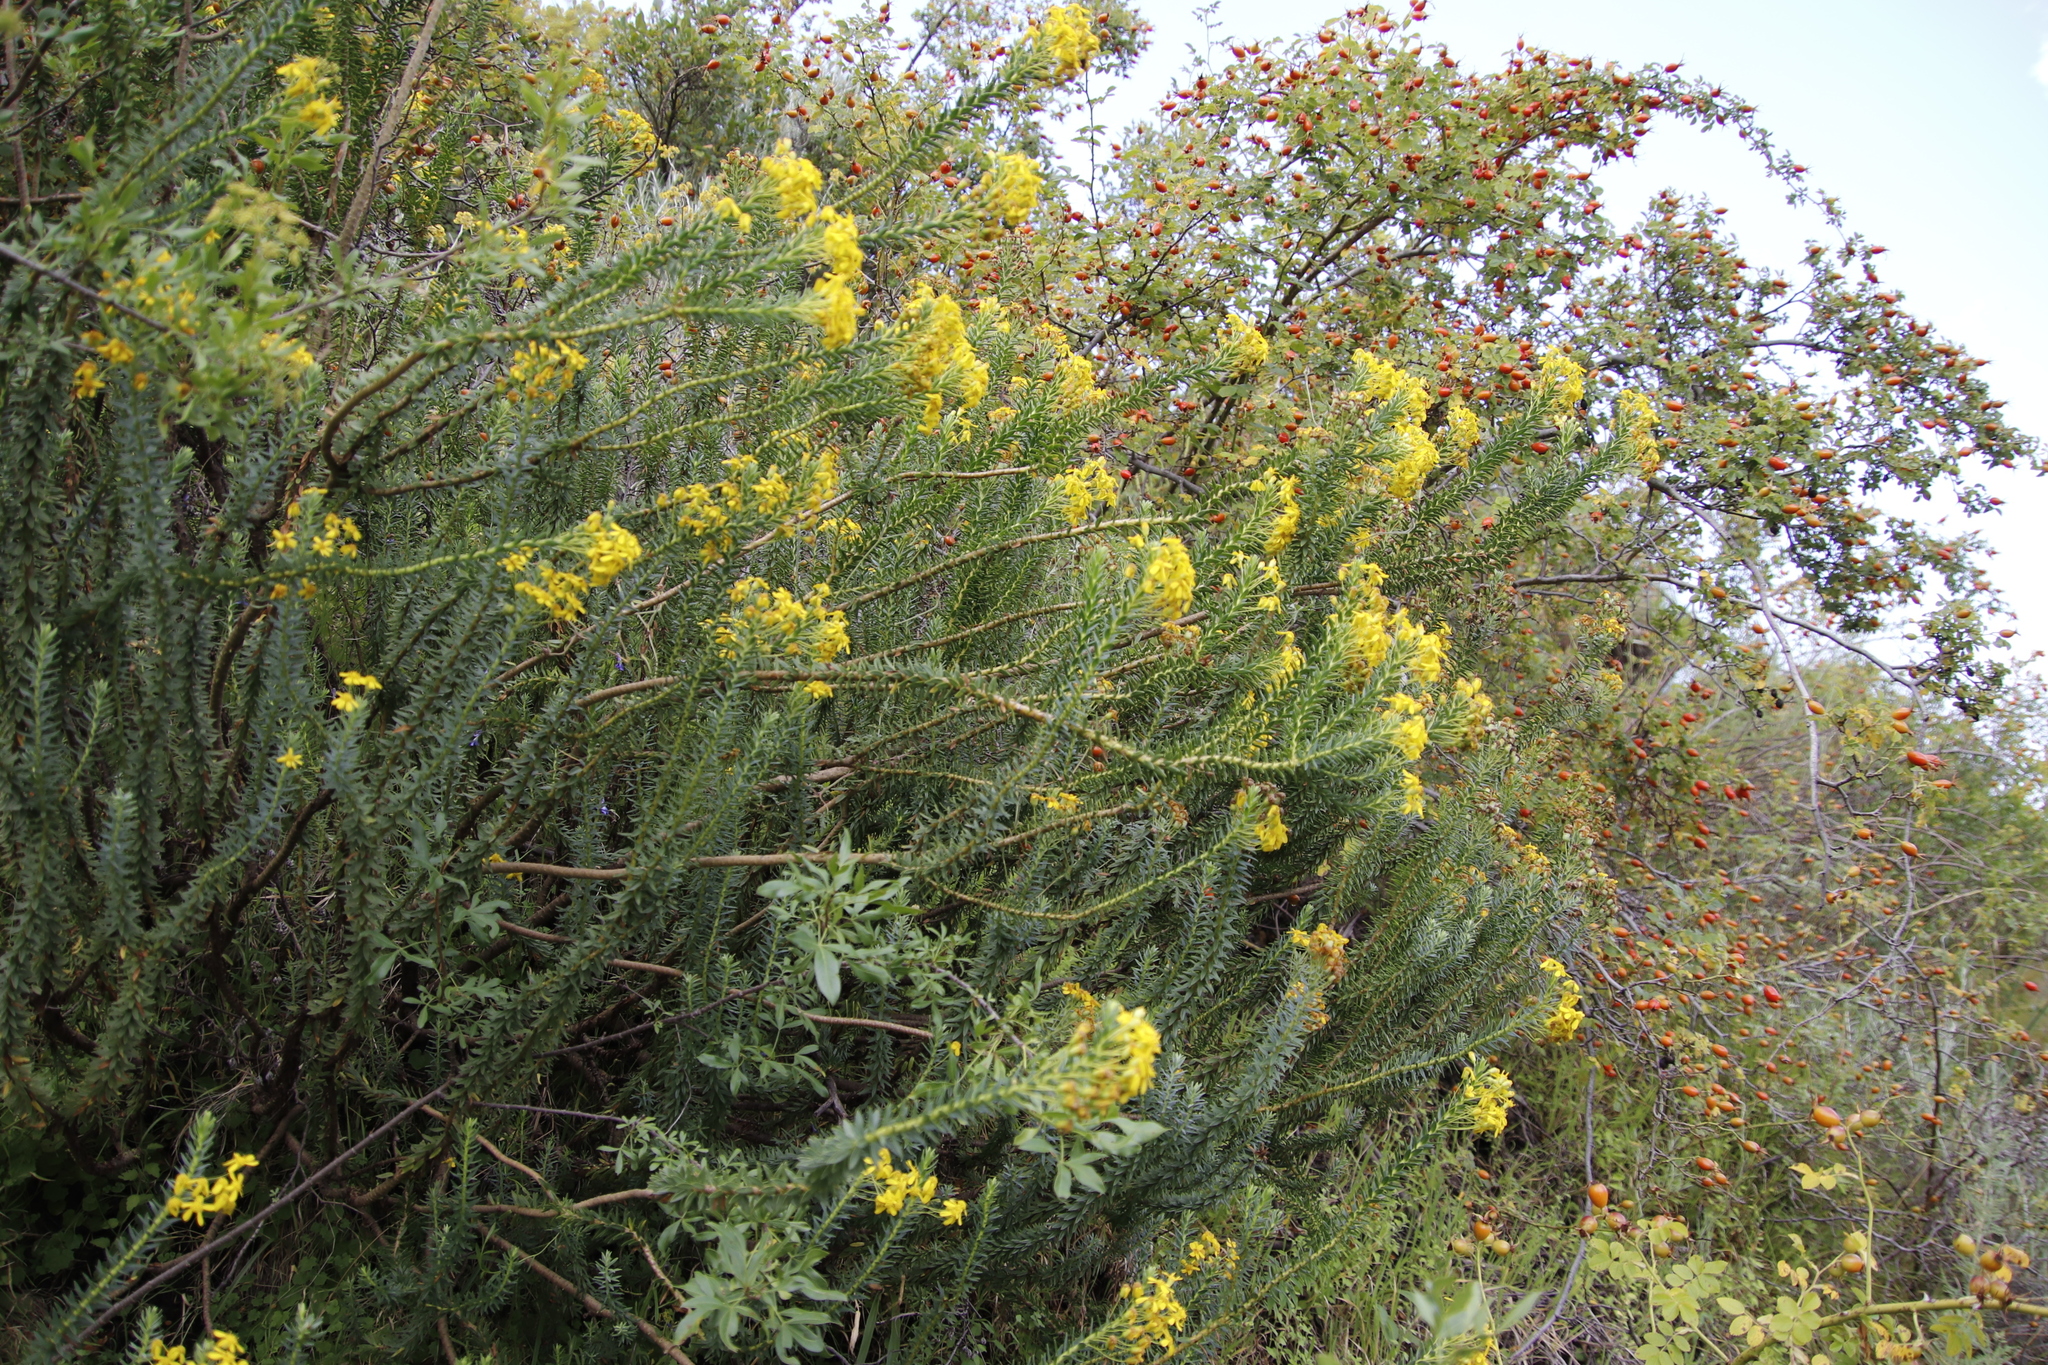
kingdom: Plantae
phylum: Tracheophyta
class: Magnoliopsida
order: Asterales
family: Asteraceae
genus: Euryops
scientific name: Euryops tysonii
